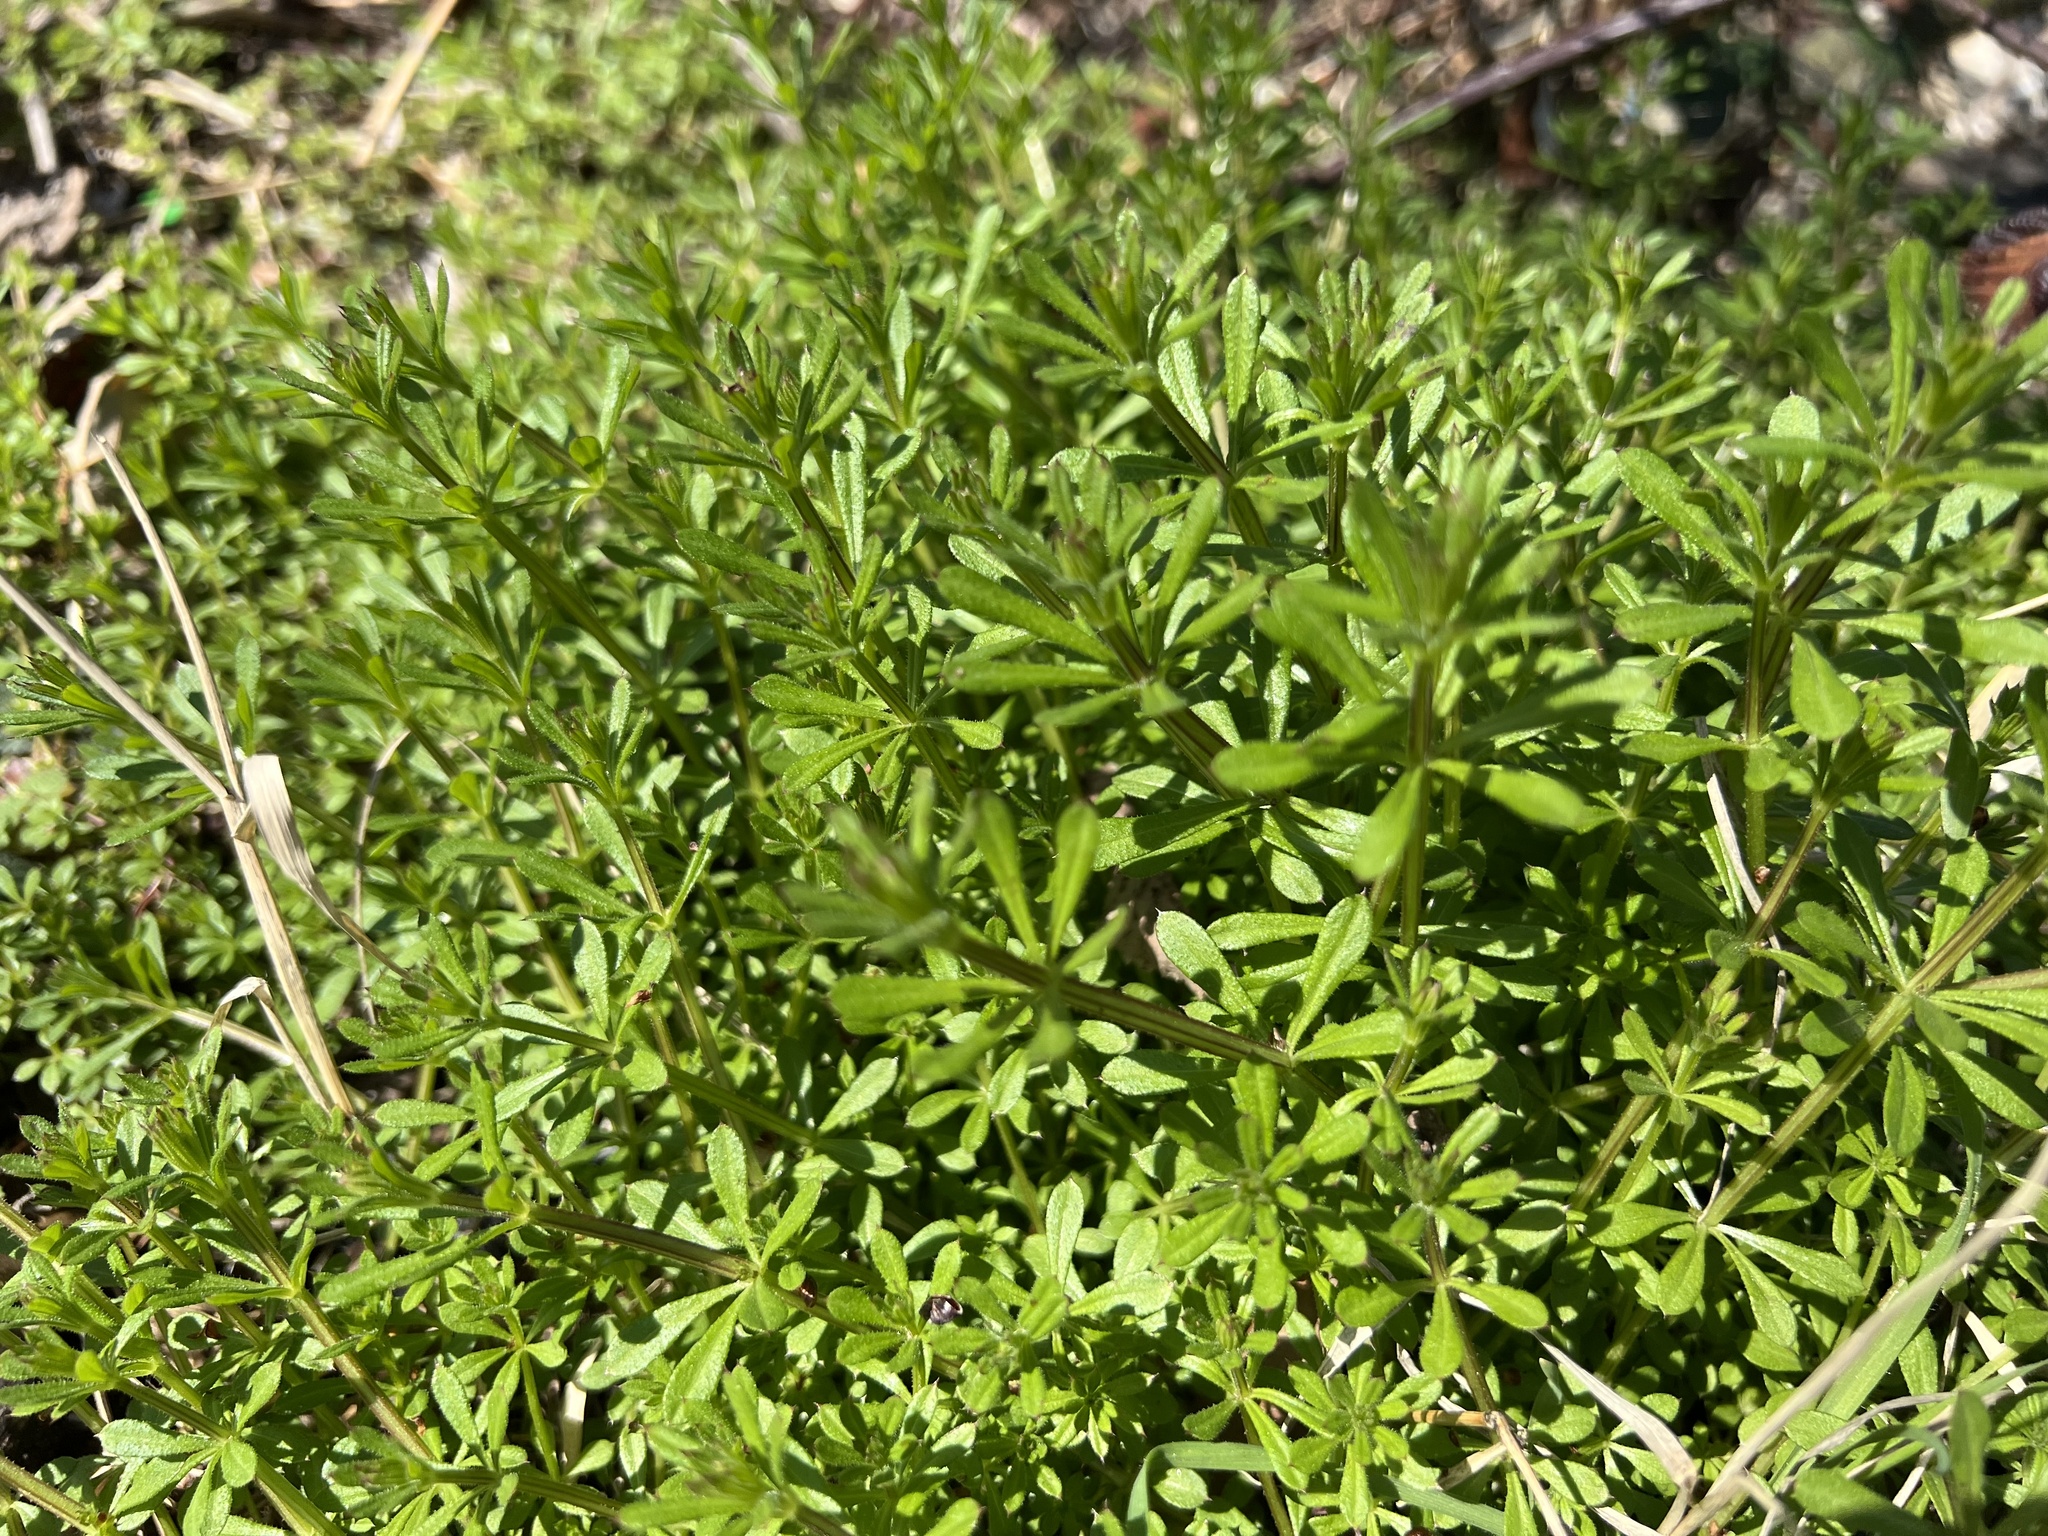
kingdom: Plantae
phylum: Tracheophyta
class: Magnoliopsida
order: Gentianales
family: Rubiaceae
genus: Galium
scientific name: Galium aparine
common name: Cleavers
